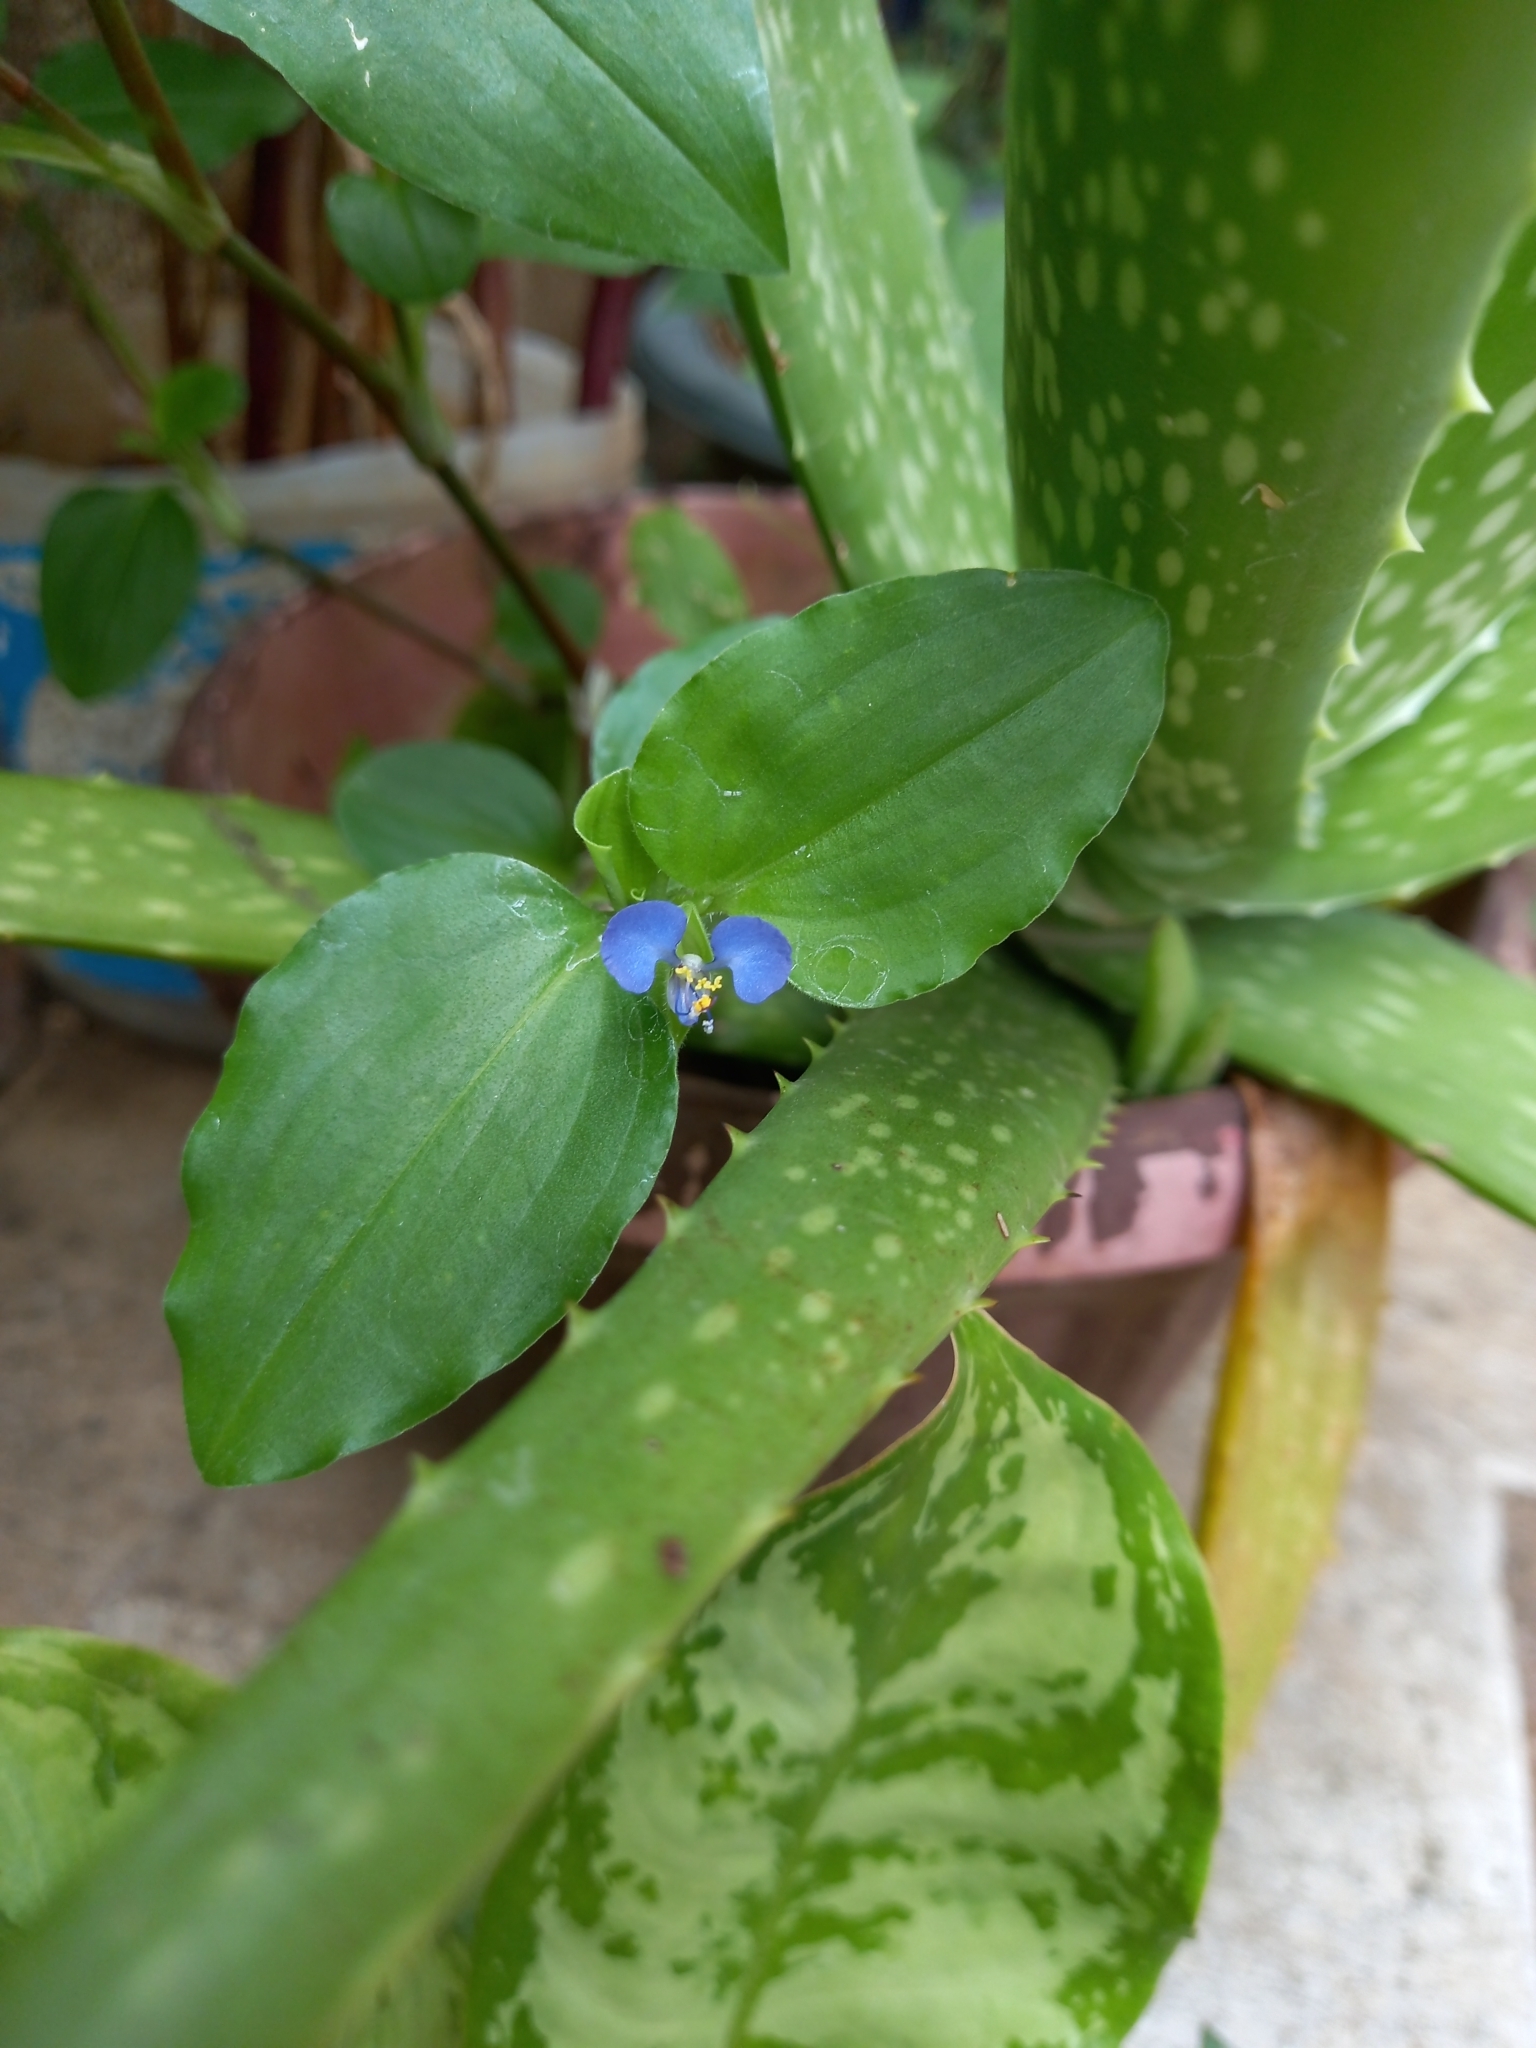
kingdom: Plantae
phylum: Tracheophyta
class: Liliopsida
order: Commelinales
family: Commelinaceae
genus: Commelina
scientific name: Commelina benghalensis
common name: Jio
